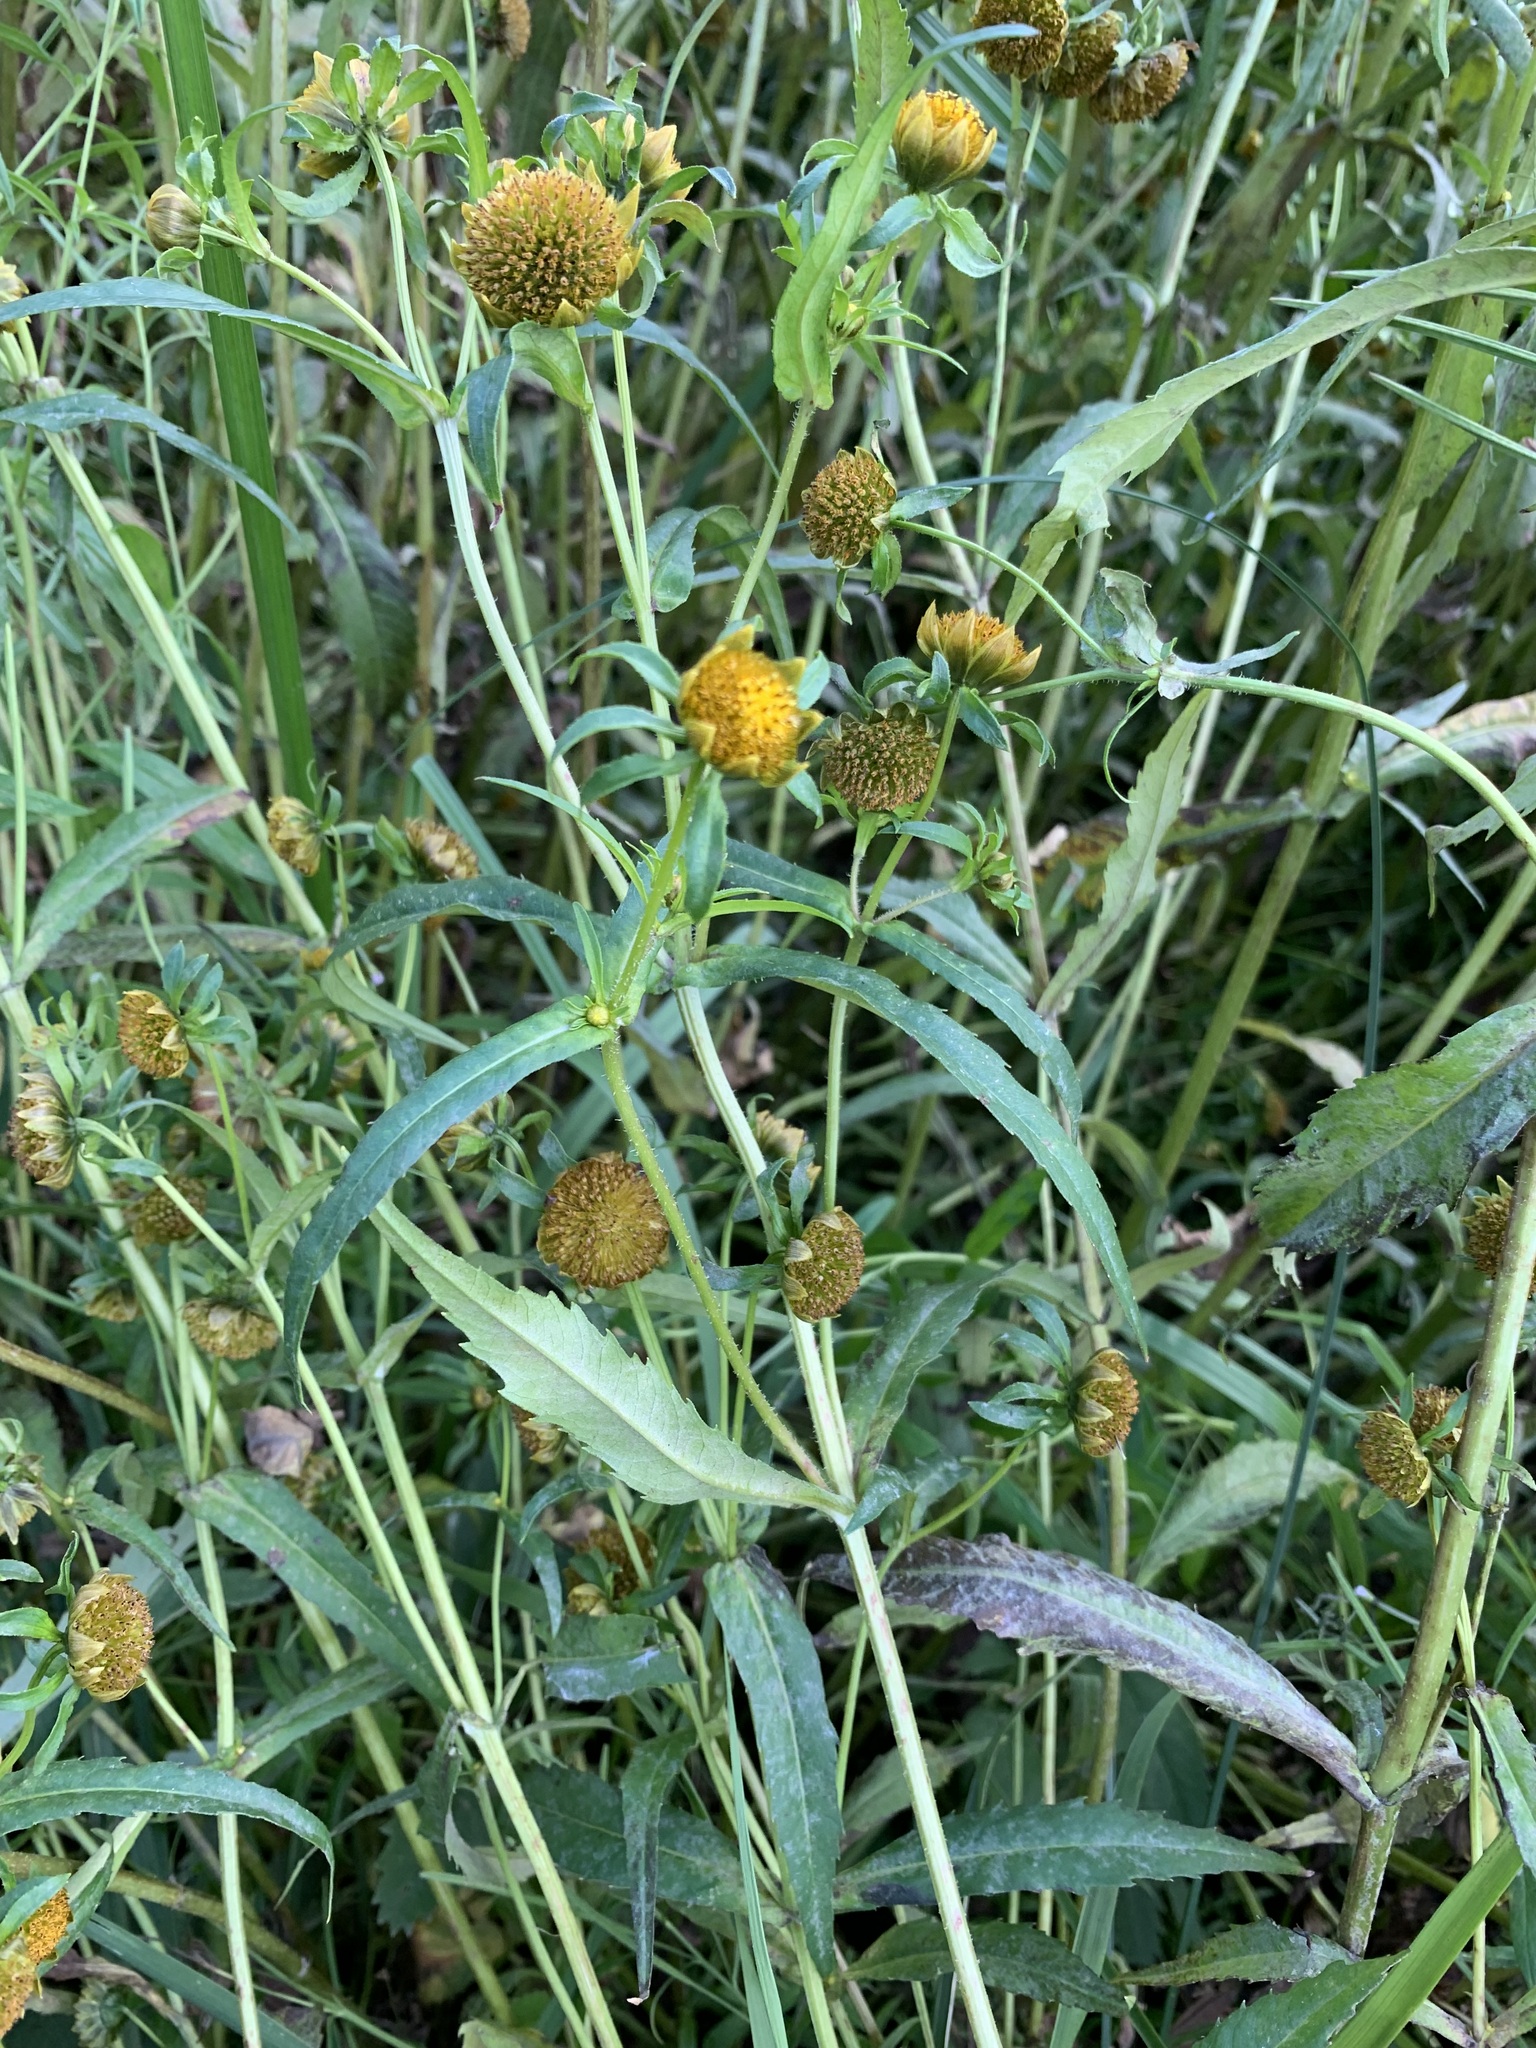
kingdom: Plantae
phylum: Tracheophyta
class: Magnoliopsida
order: Asterales
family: Asteraceae
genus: Bidens
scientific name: Bidens cernua
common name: Nodding bur-marigold
